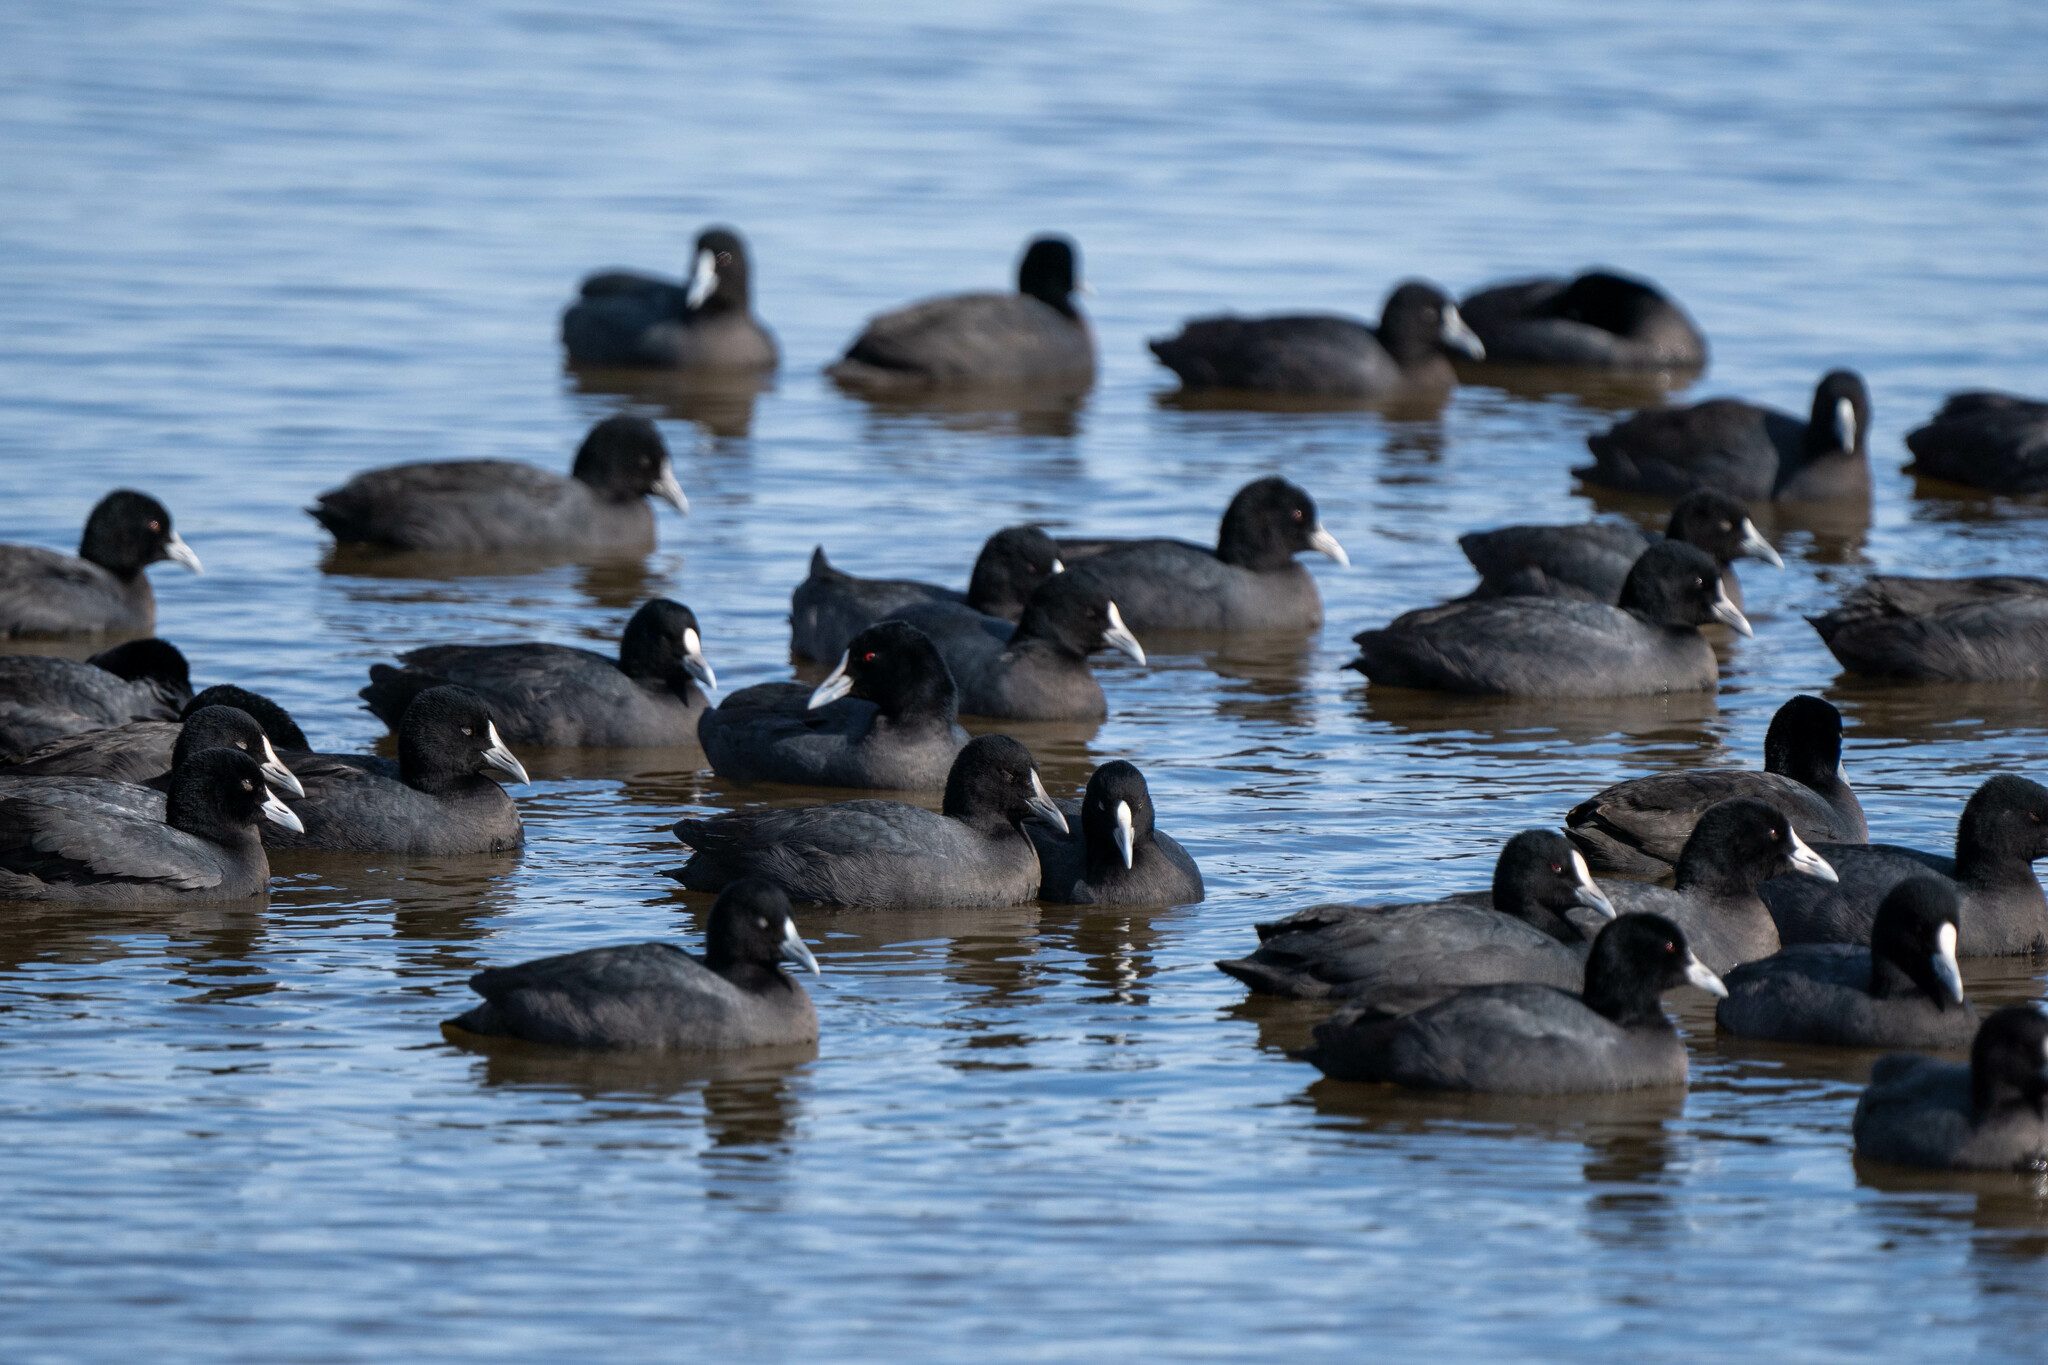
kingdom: Animalia
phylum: Chordata
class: Aves
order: Gruiformes
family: Rallidae
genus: Fulica
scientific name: Fulica atra
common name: Eurasian coot
